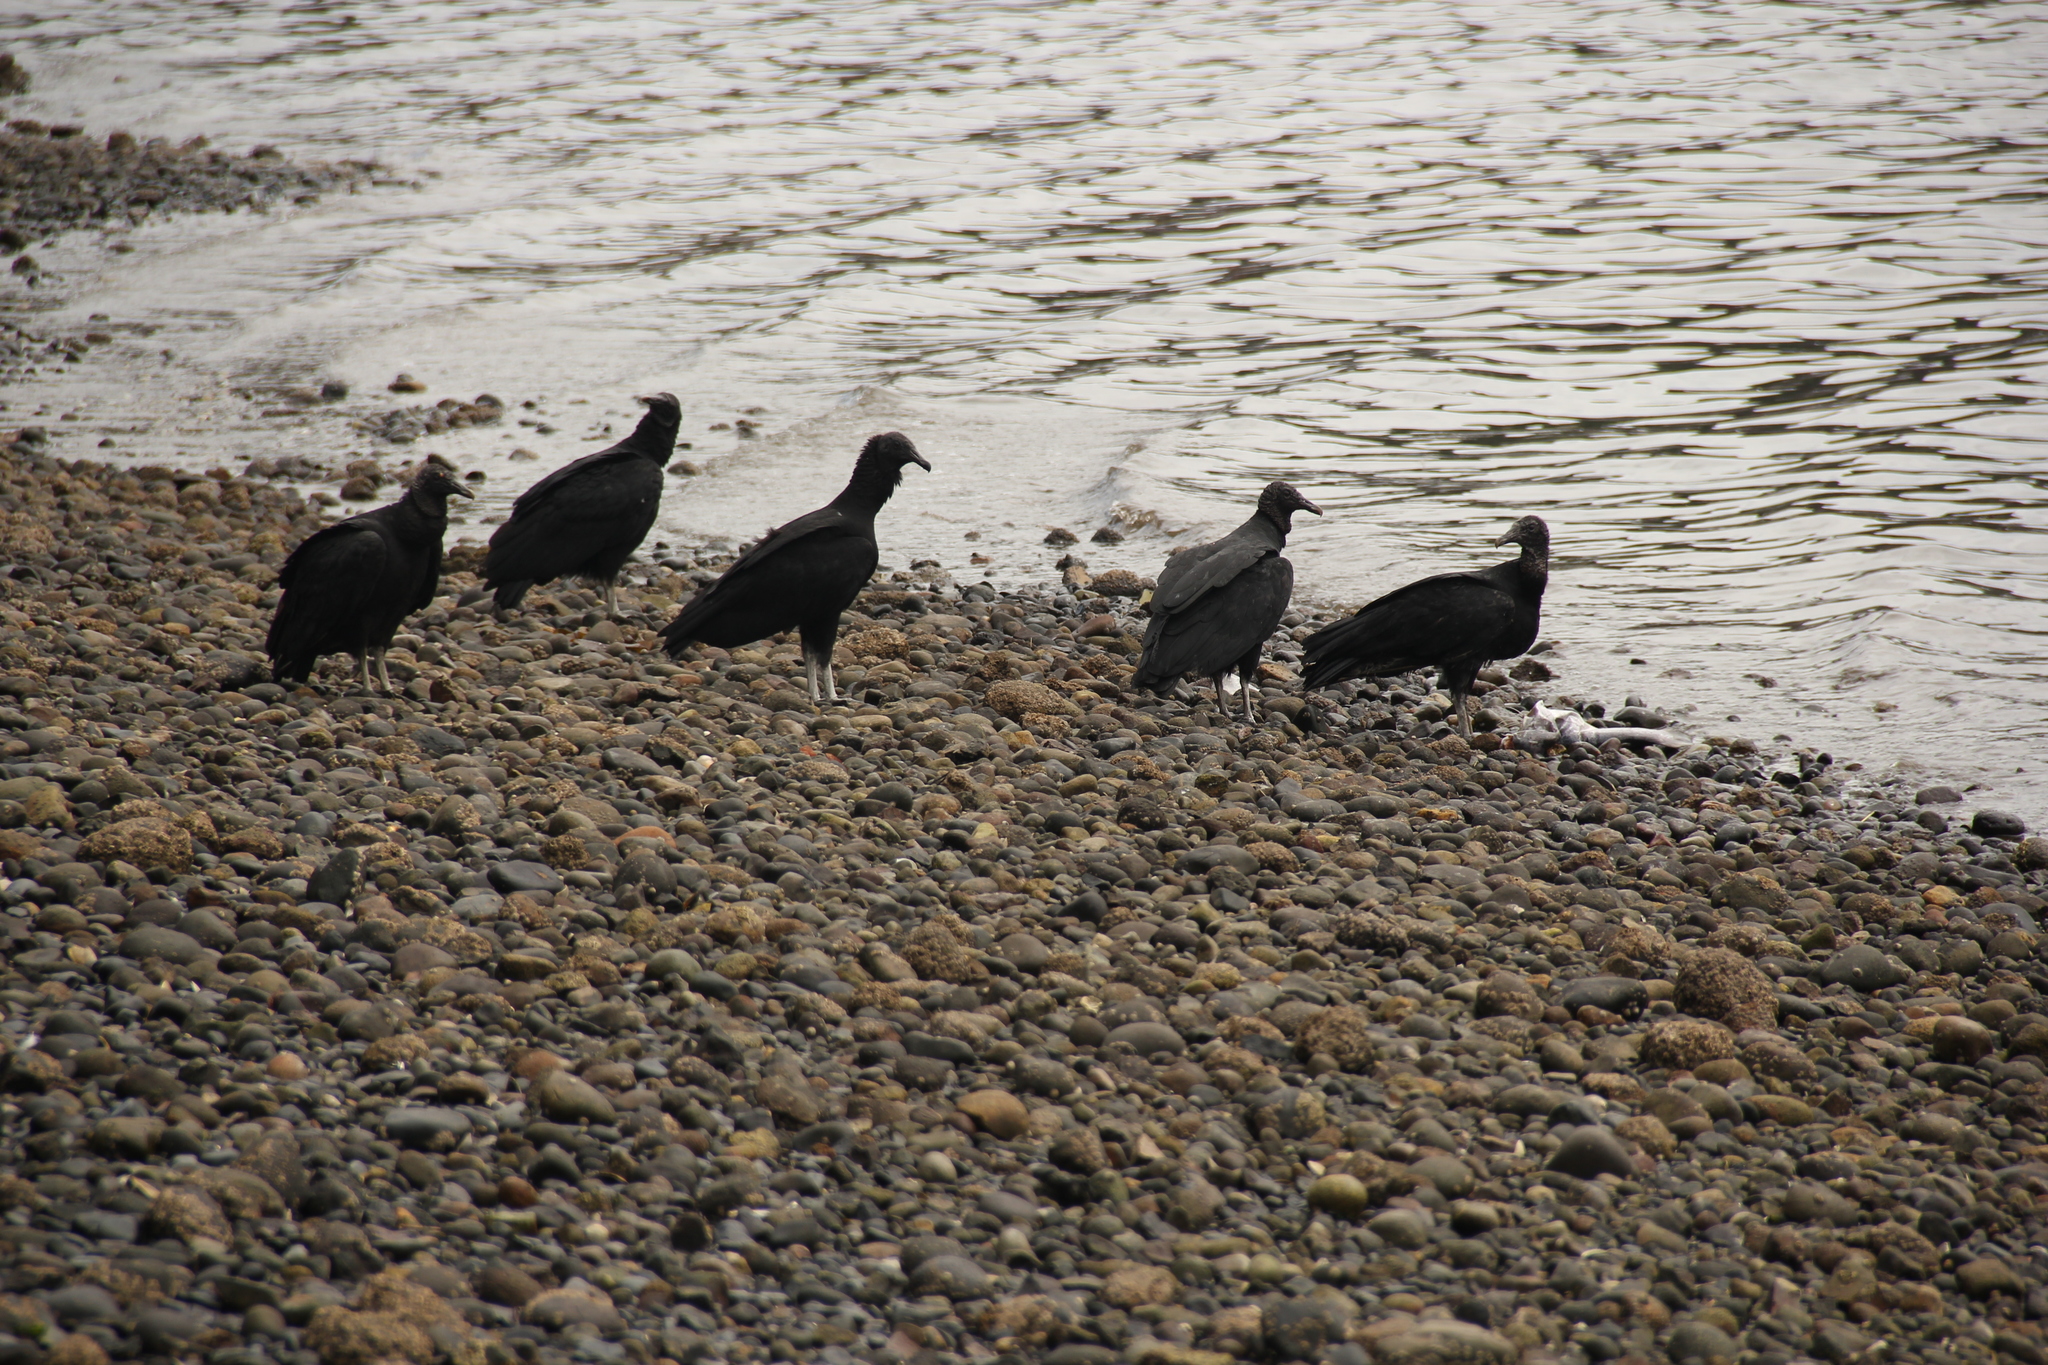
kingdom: Animalia
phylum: Chordata
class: Aves
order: Accipitriformes
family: Cathartidae
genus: Coragyps
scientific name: Coragyps atratus
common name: Black vulture
